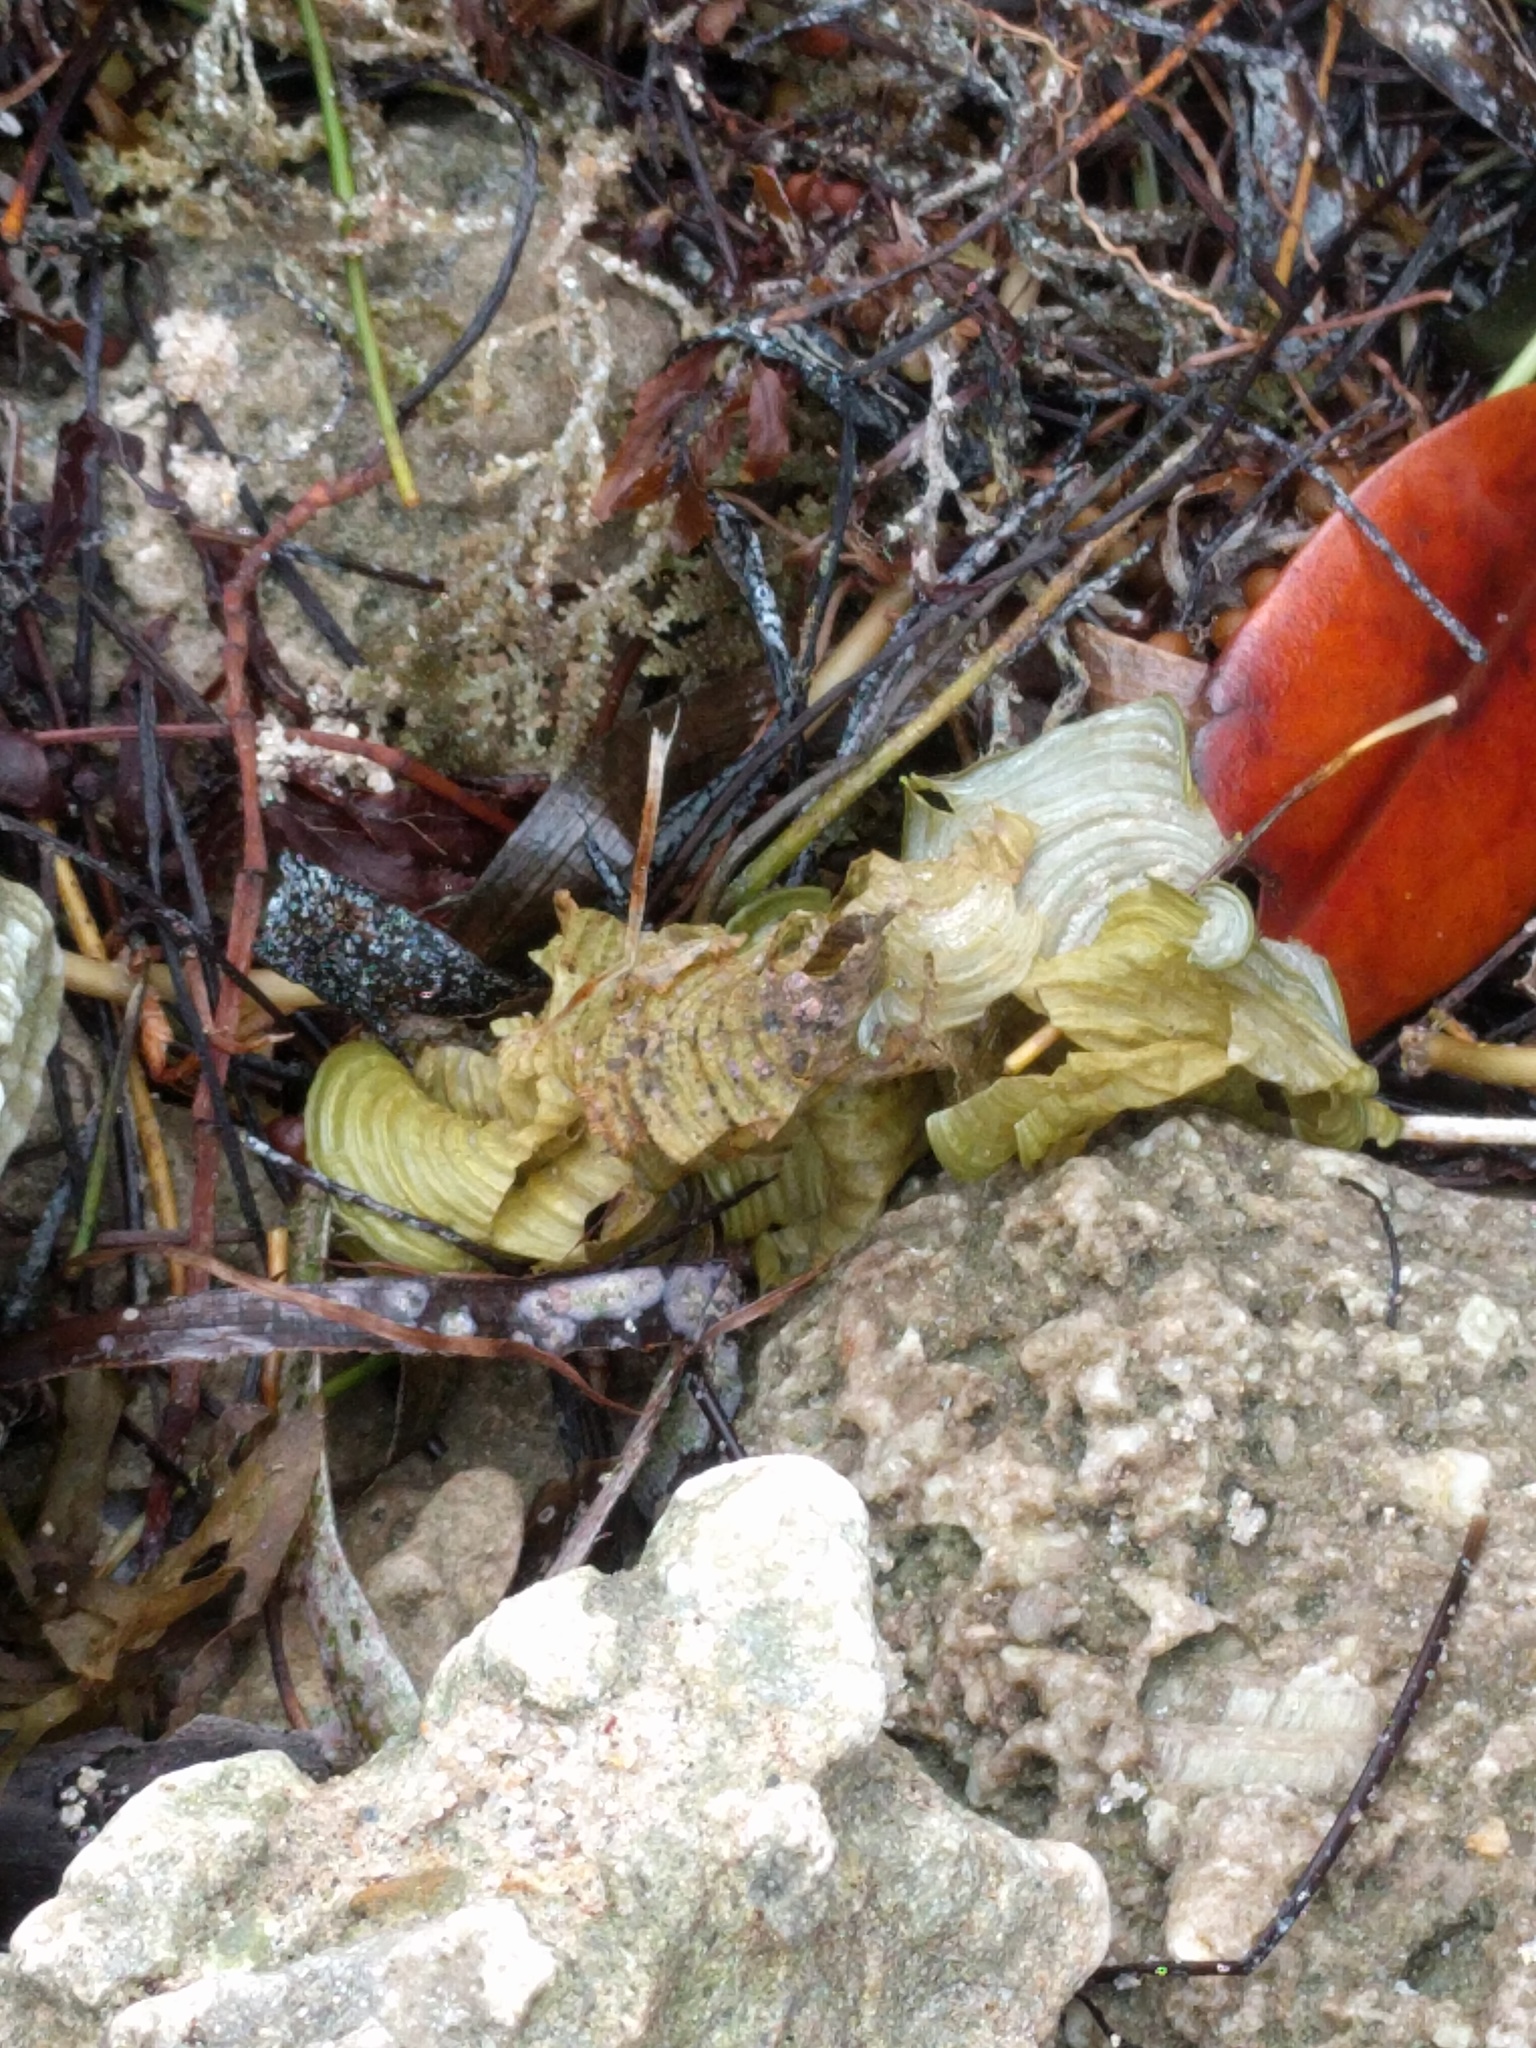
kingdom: Chromista
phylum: Ochrophyta
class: Phaeophyceae
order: Dictyotales
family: Dictyotaceae
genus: Padina
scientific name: Padina sanctae-crucis
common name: White scroll algae
